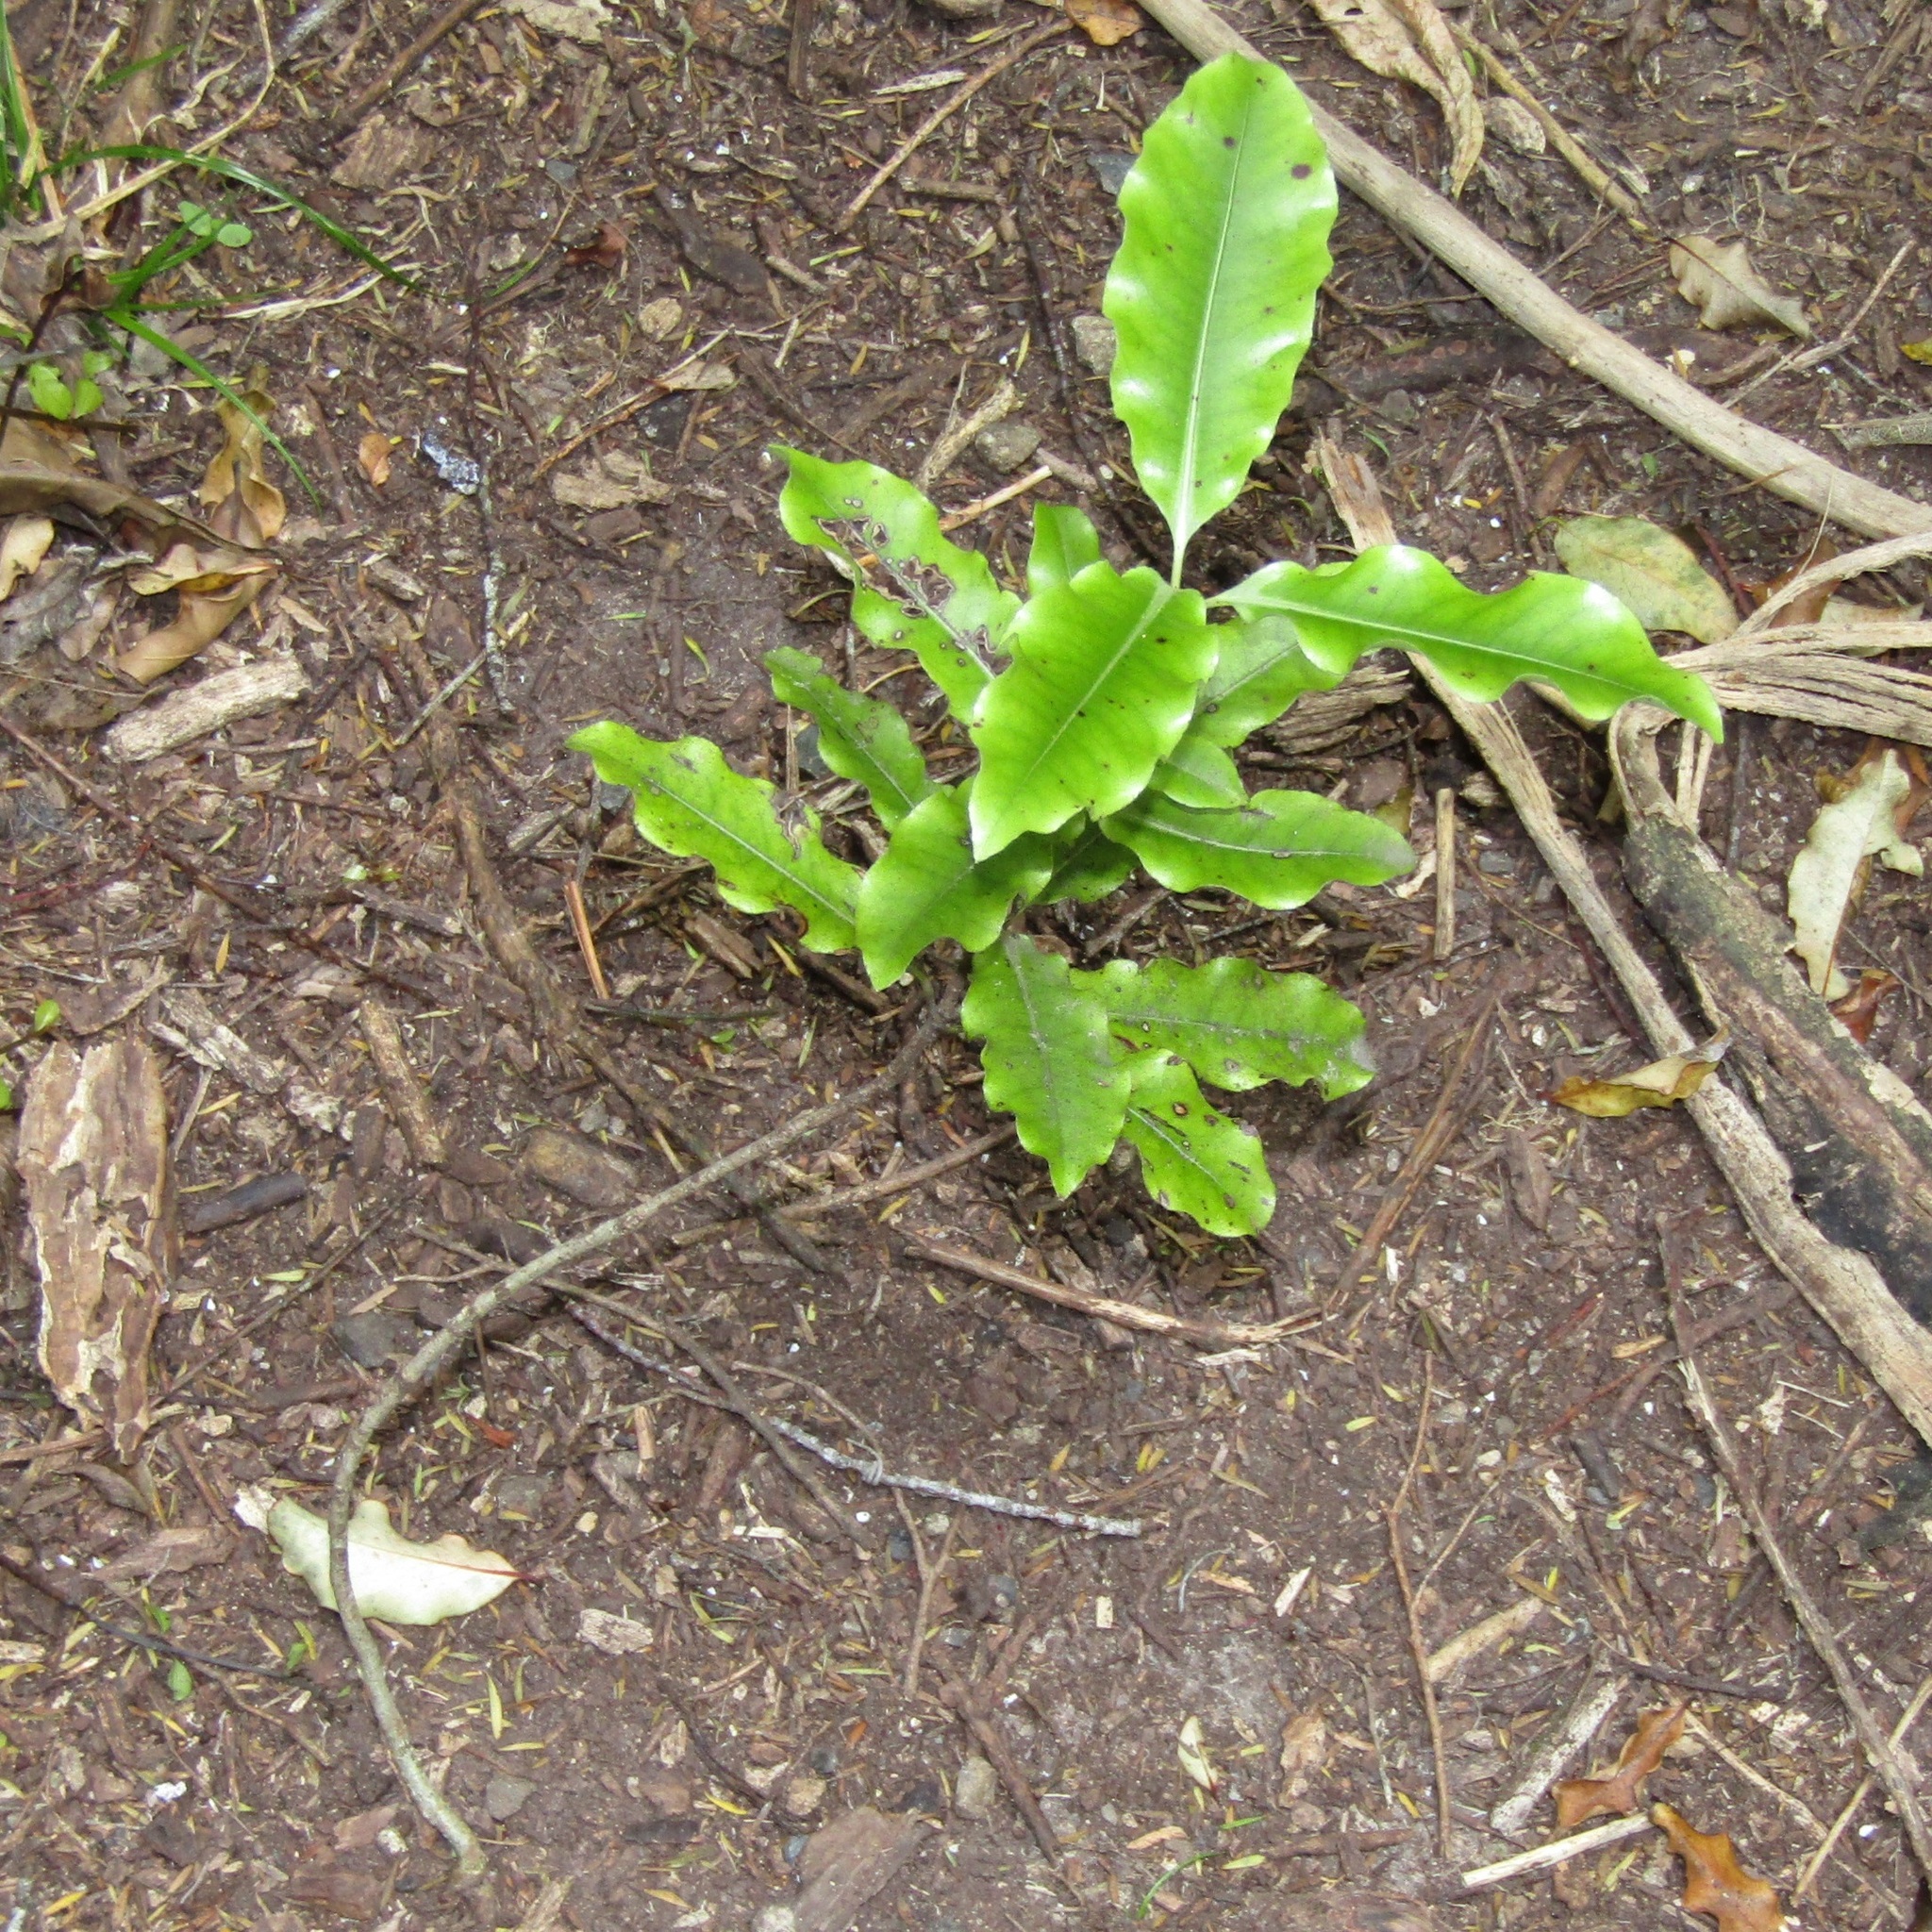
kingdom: Plantae
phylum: Tracheophyta
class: Magnoliopsida
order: Apiales
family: Pittosporaceae
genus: Pittosporum
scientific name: Pittosporum eugenioides
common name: Lemonwood
